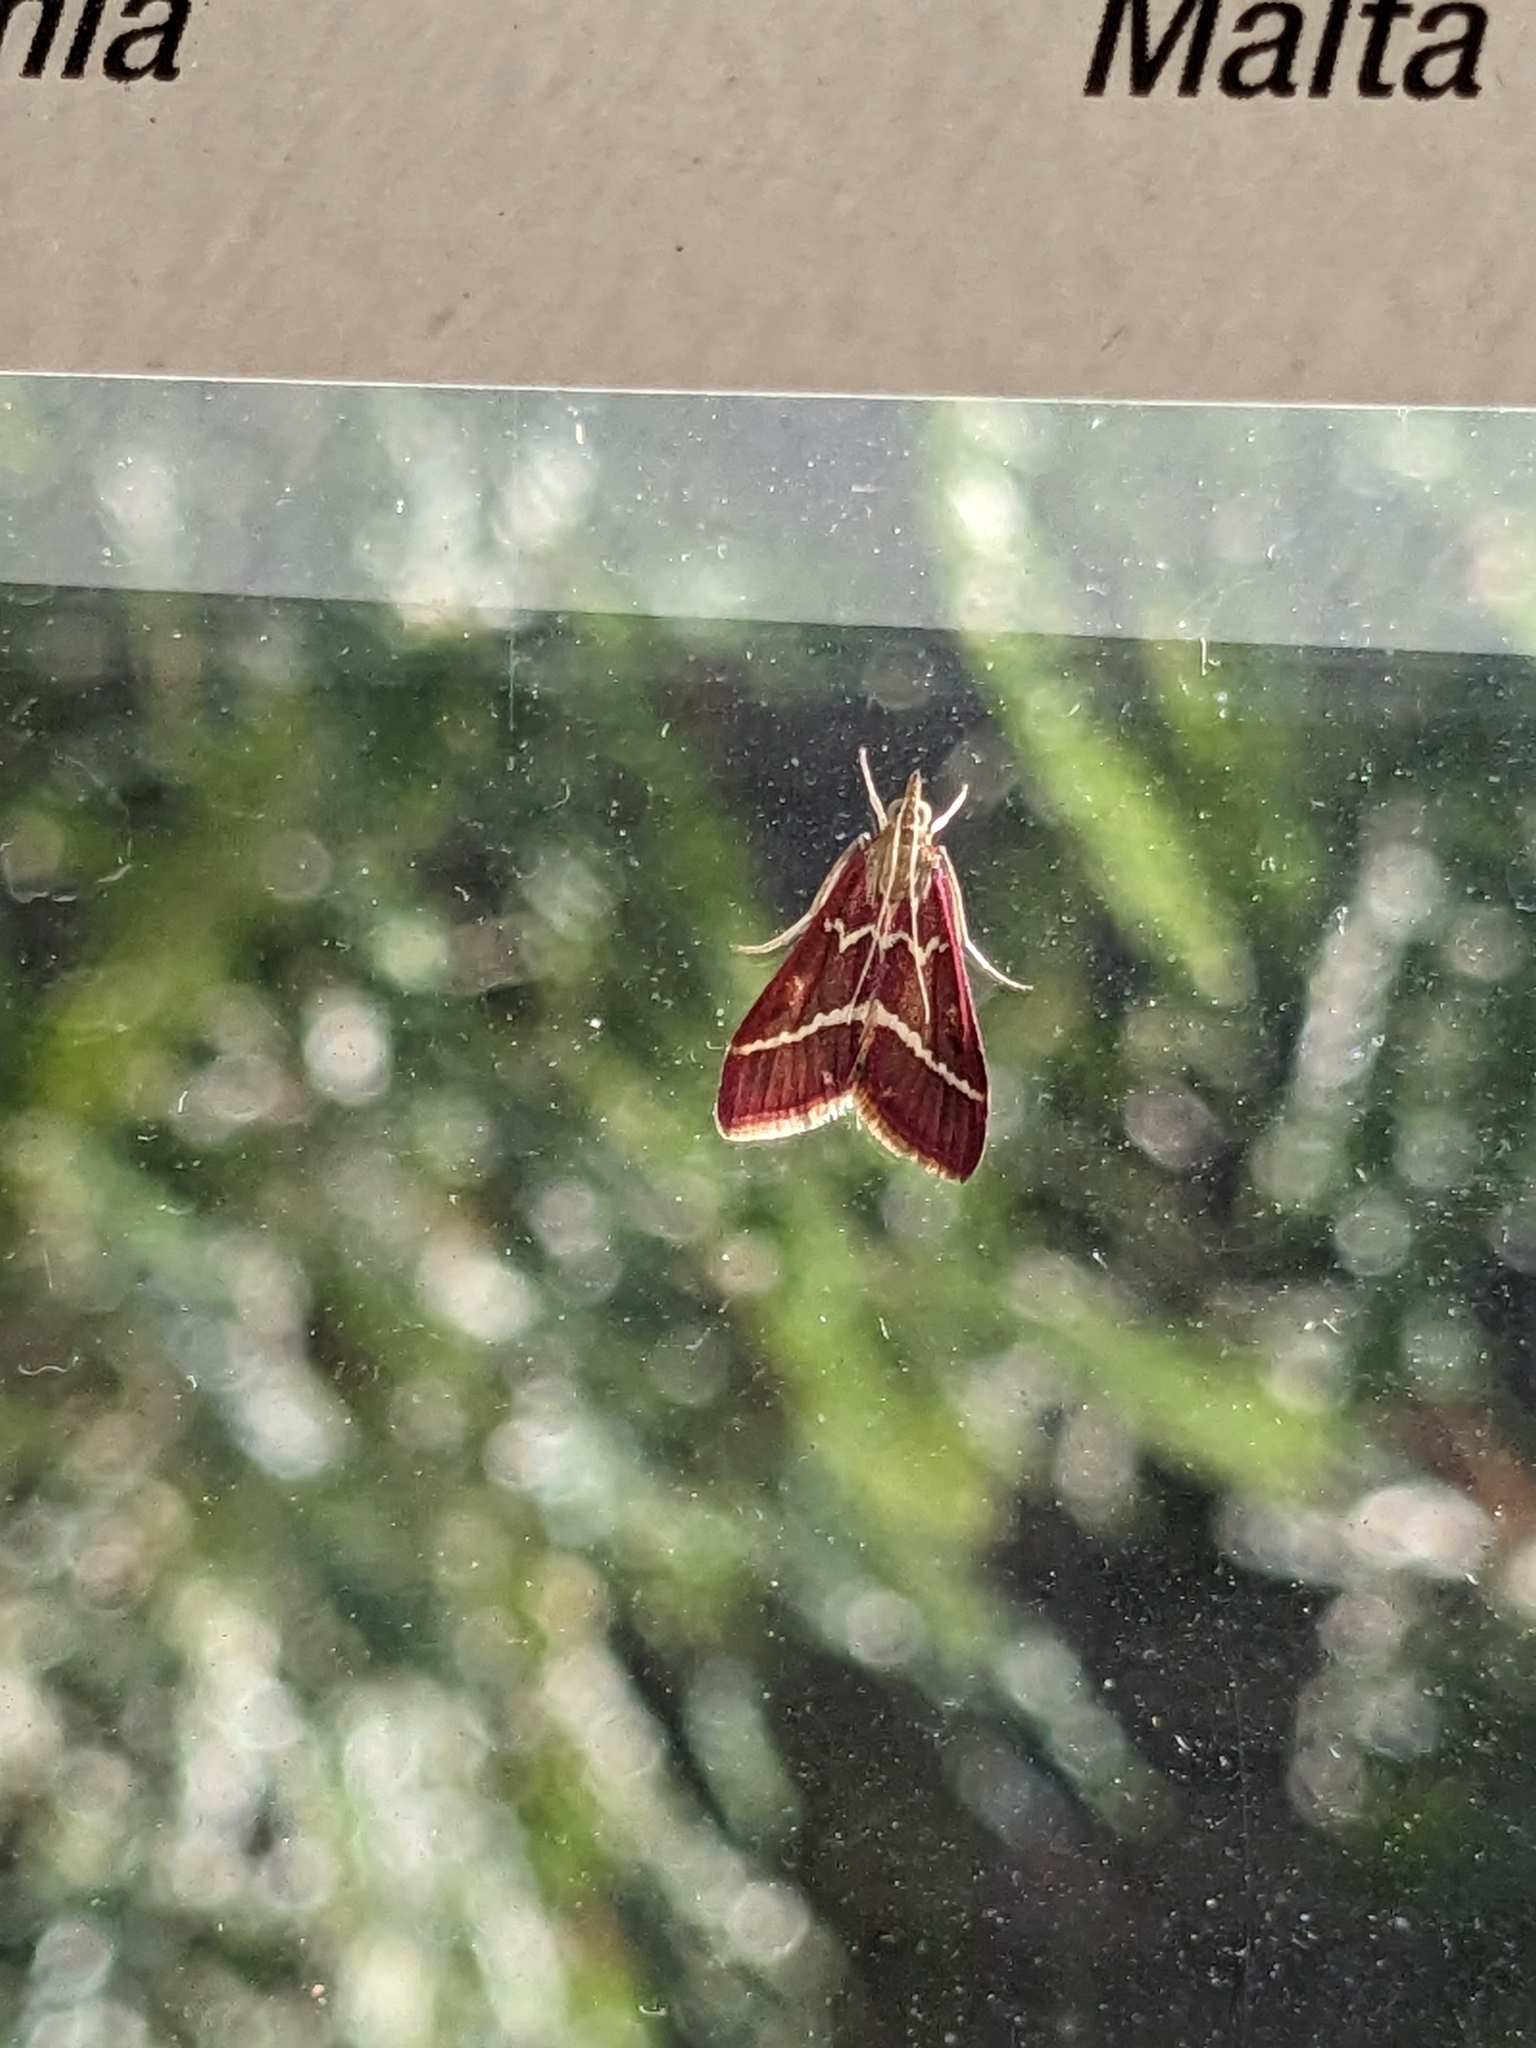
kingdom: Animalia
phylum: Arthropoda
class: Insecta
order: Lepidoptera
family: Crambidae
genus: Pyrausta
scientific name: Pyrausta volupialis
